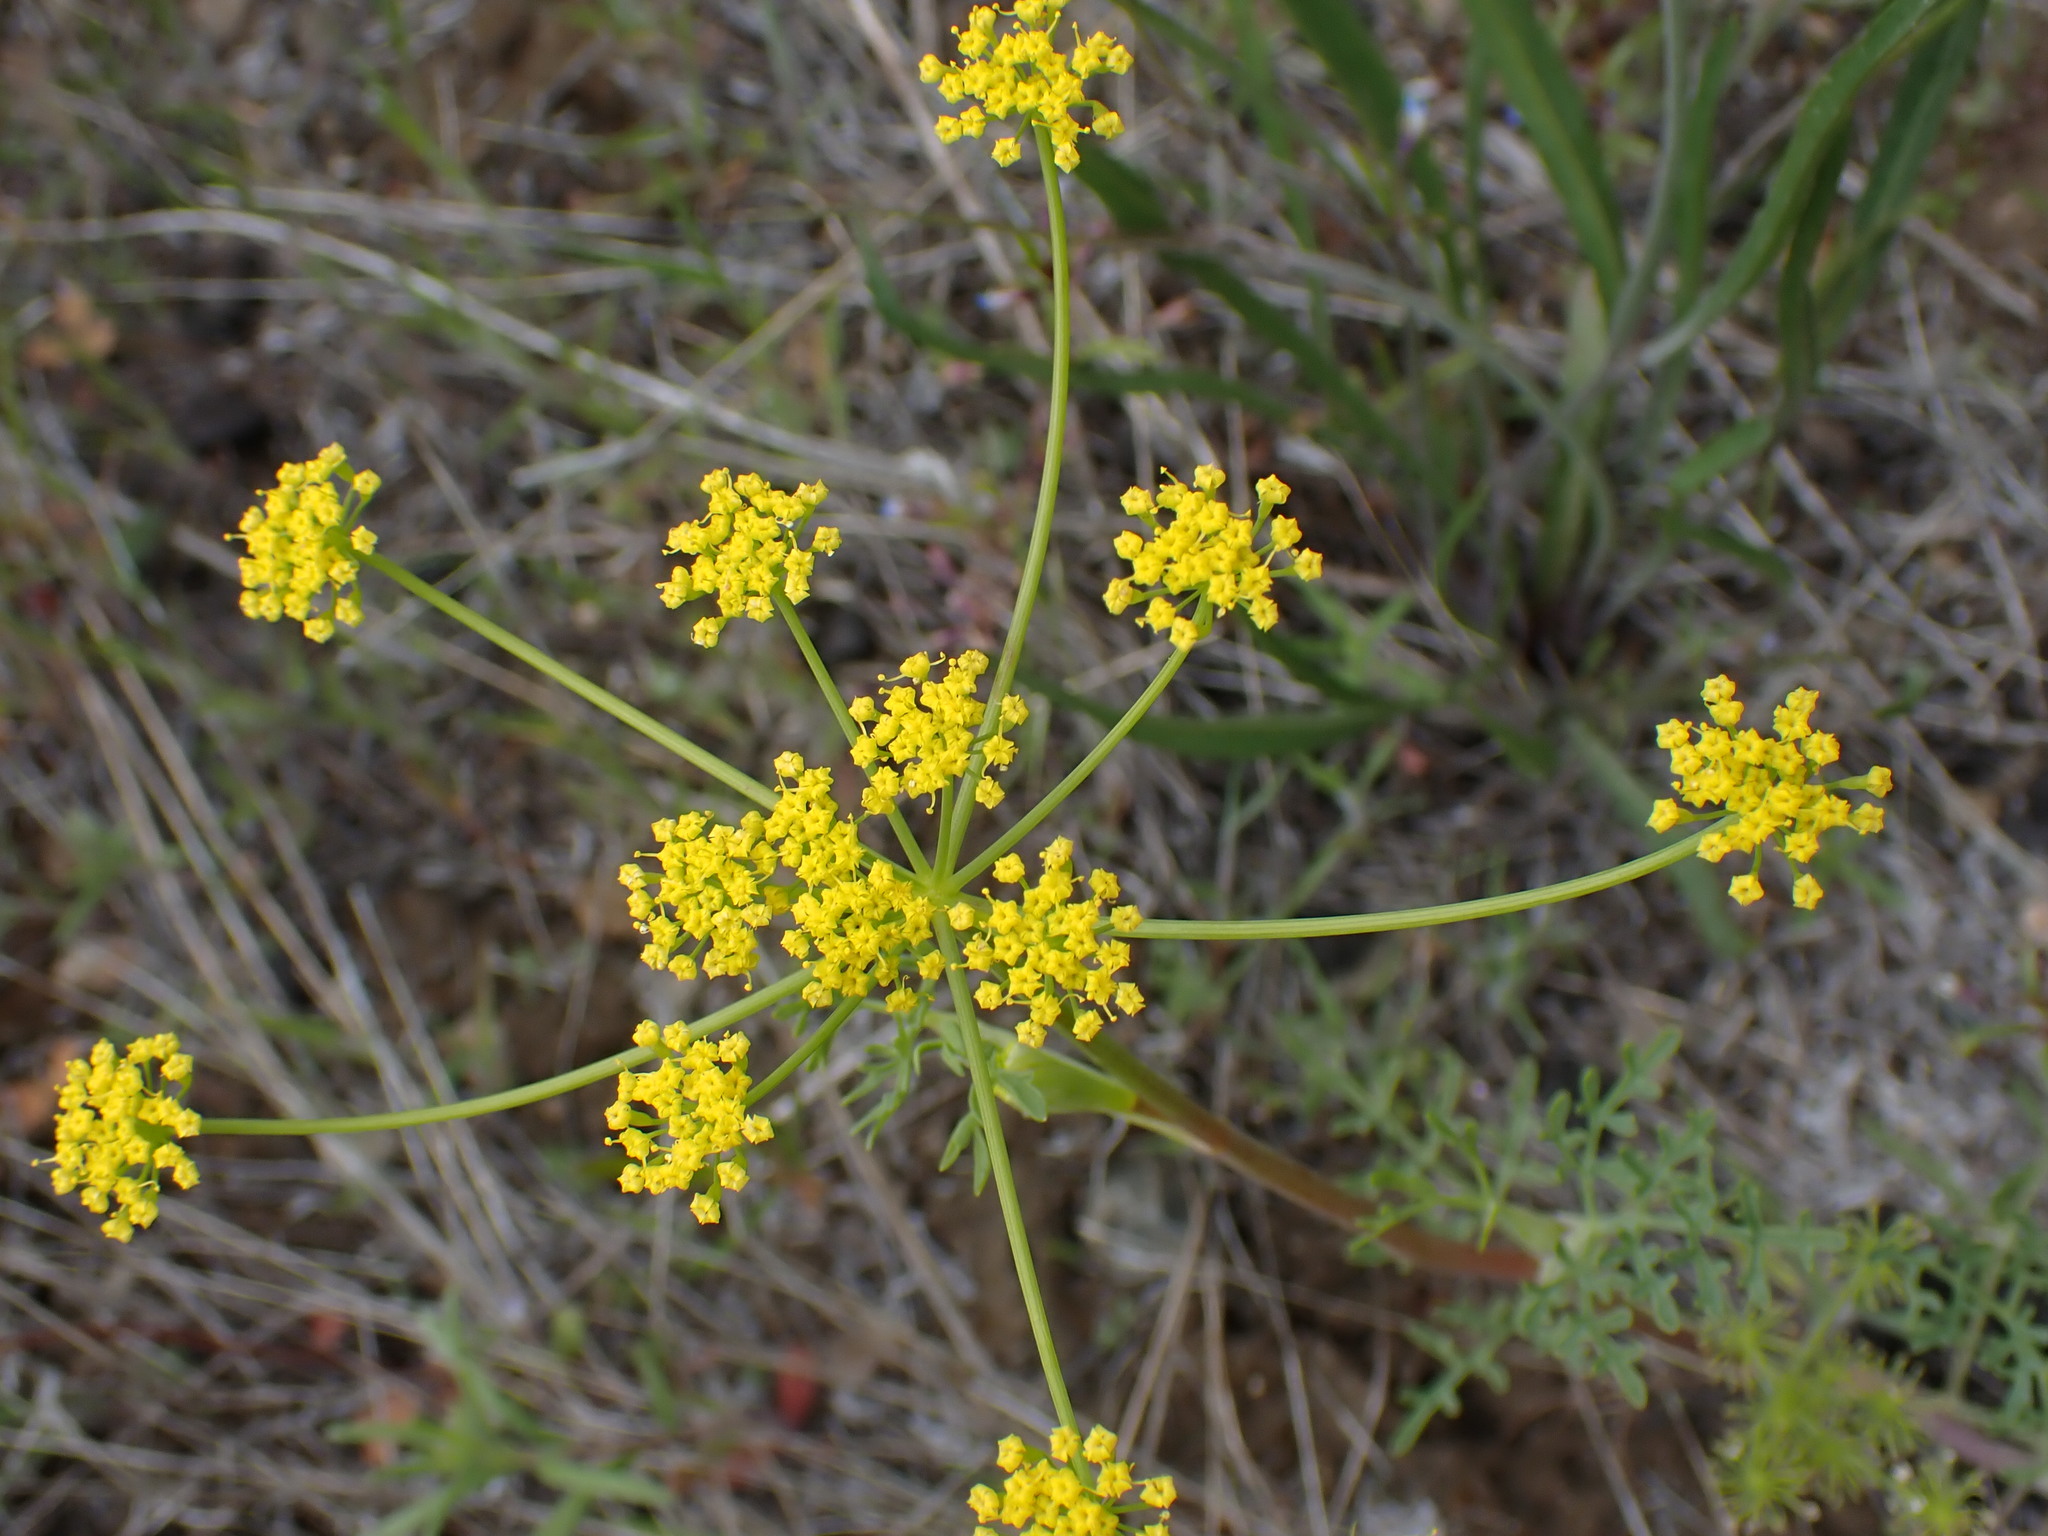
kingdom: Plantae
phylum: Tracheophyta
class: Magnoliopsida
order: Apiales
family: Apiaceae
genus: Lomatium
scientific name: Lomatium ambiguum
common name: Lacy lomatium
